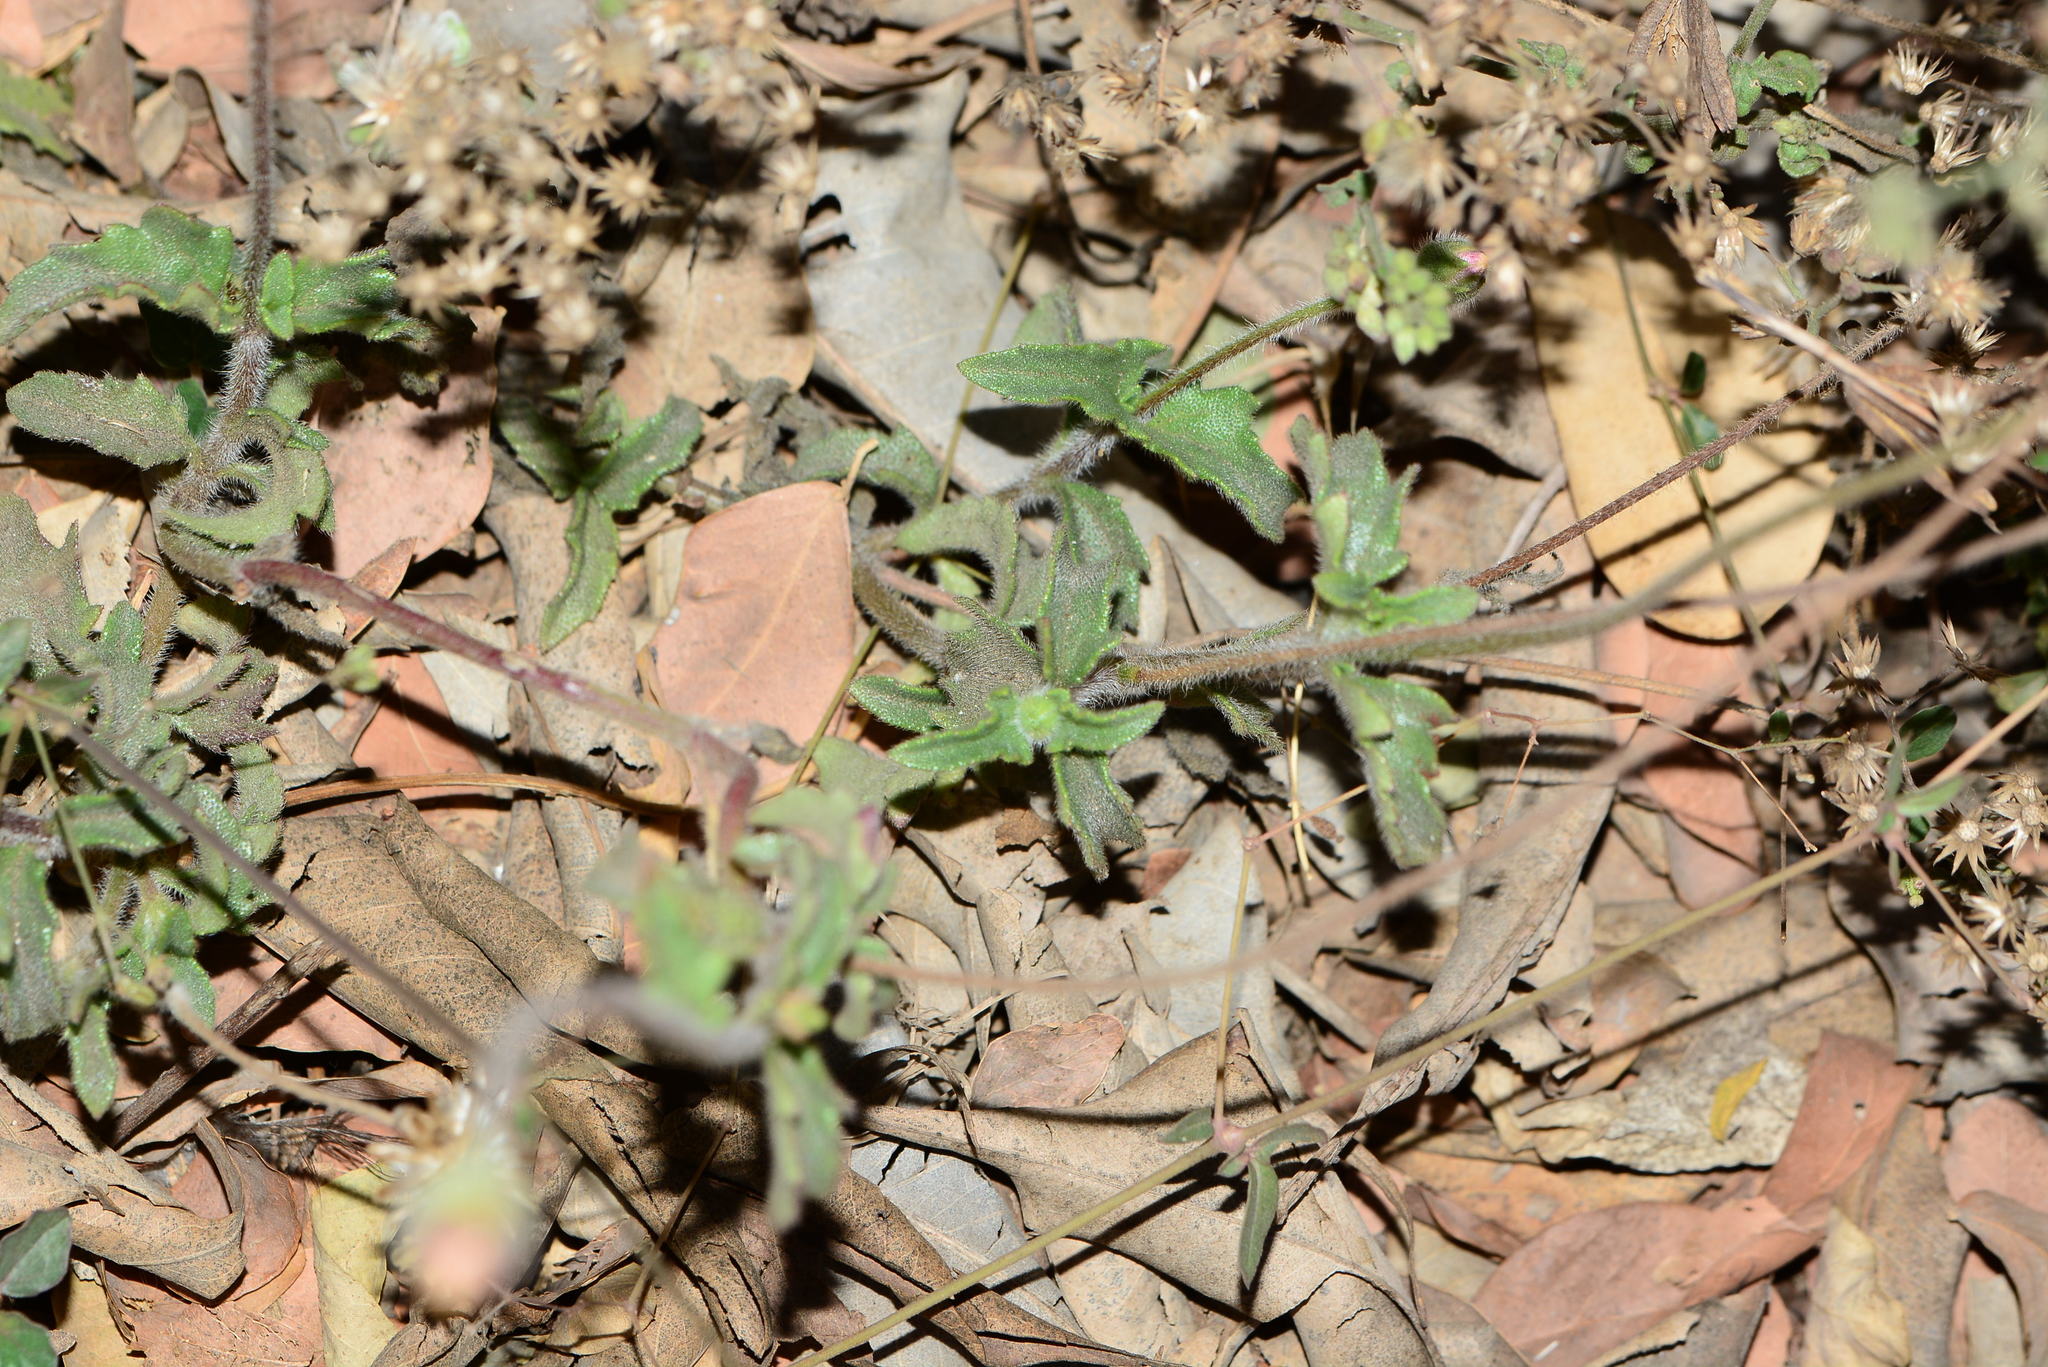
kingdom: Plantae
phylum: Tracheophyta
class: Magnoliopsida
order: Asterales
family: Asteraceae
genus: Tridax
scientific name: Tridax procumbens
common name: Coatbuttons
